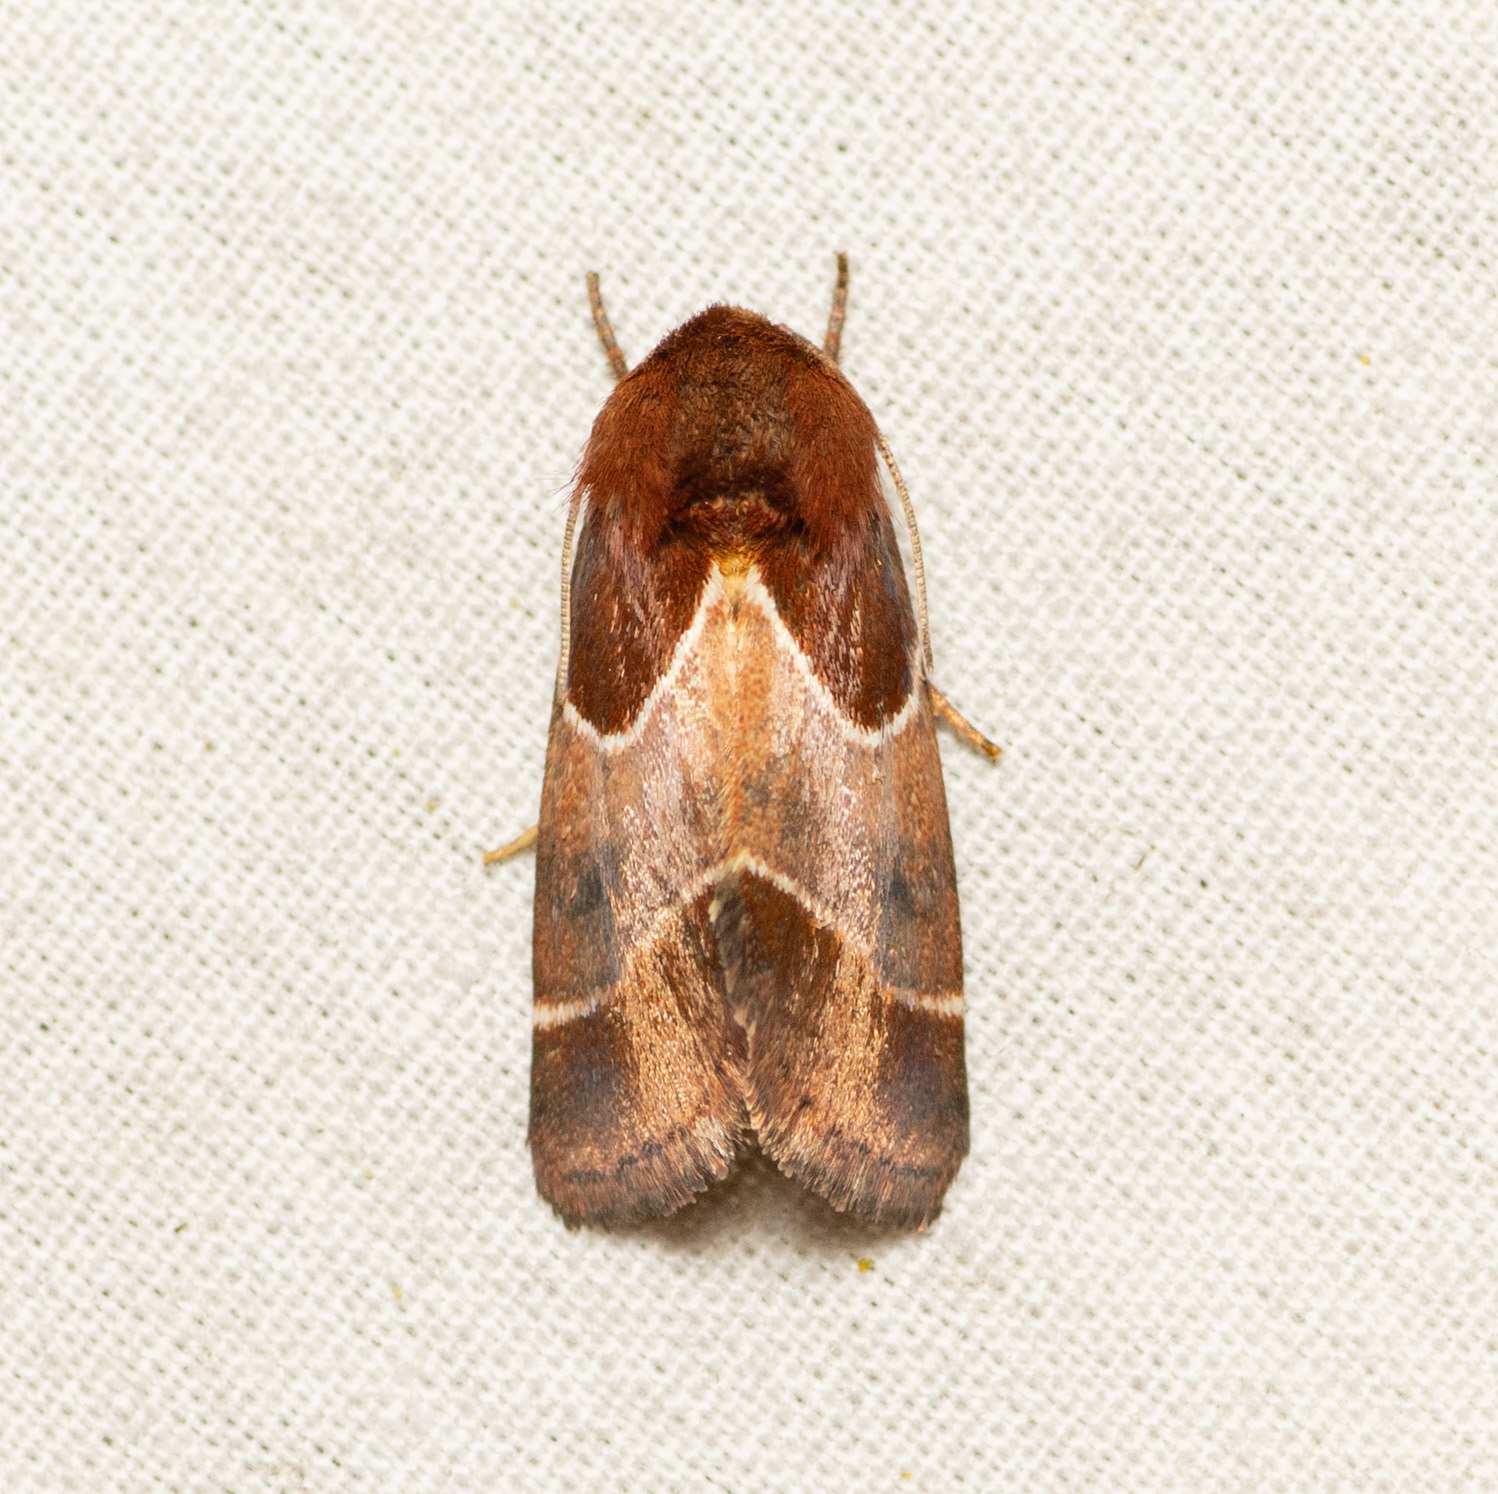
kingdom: Animalia
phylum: Arthropoda
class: Insecta
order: Lepidoptera
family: Noctuidae
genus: Schinia
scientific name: Schinia arcigera
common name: Arcigera flower moth
